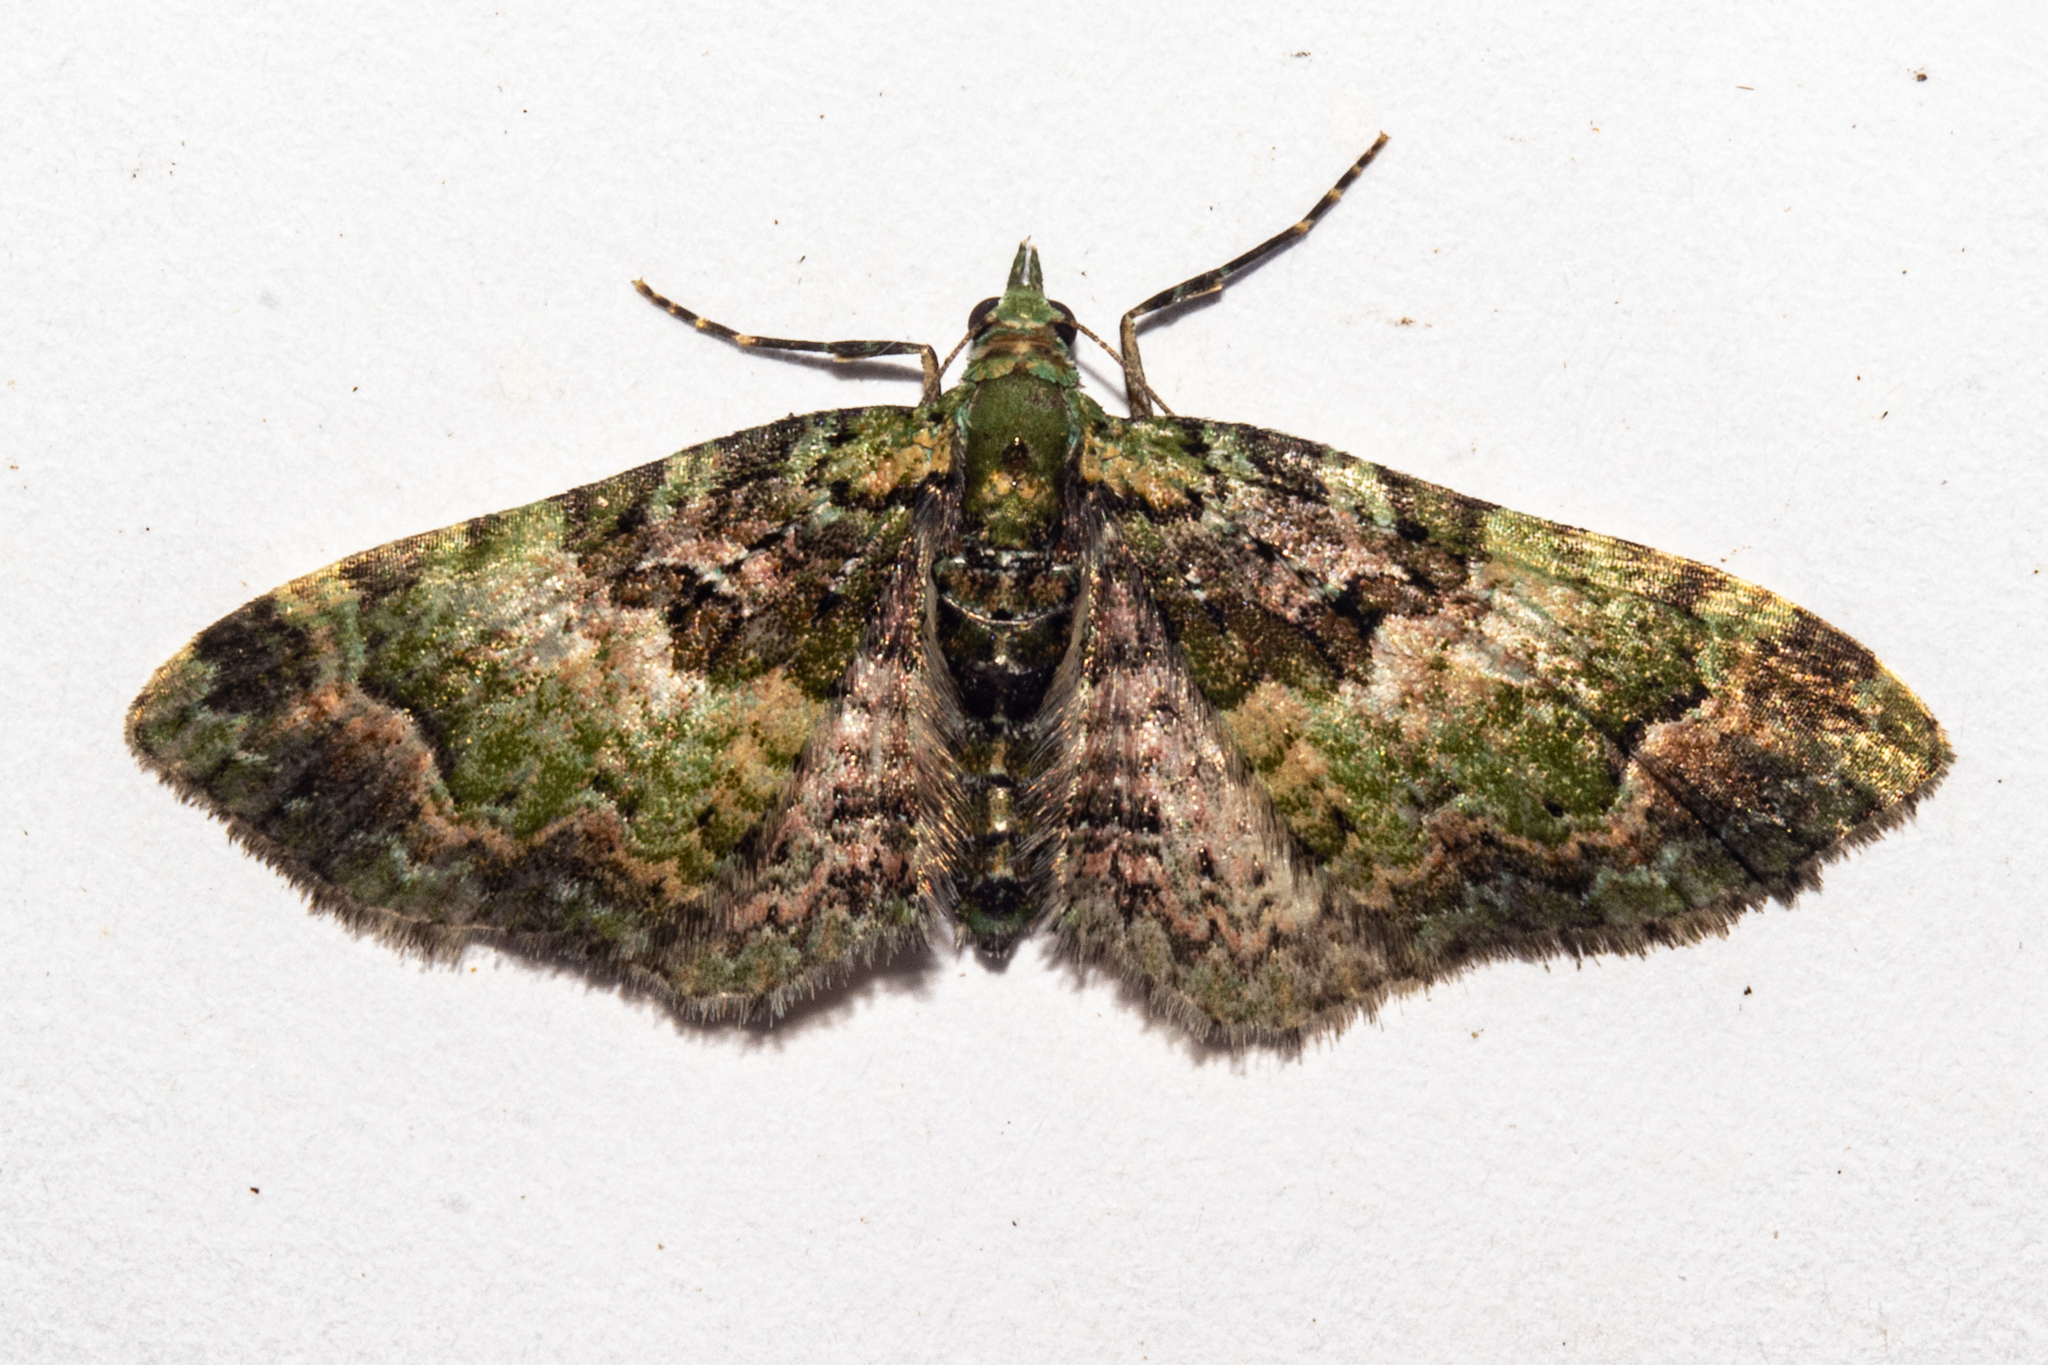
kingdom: Animalia
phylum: Arthropoda
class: Insecta
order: Lepidoptera
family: Geometridae
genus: Pasiphila
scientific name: Pasiphila punicea
